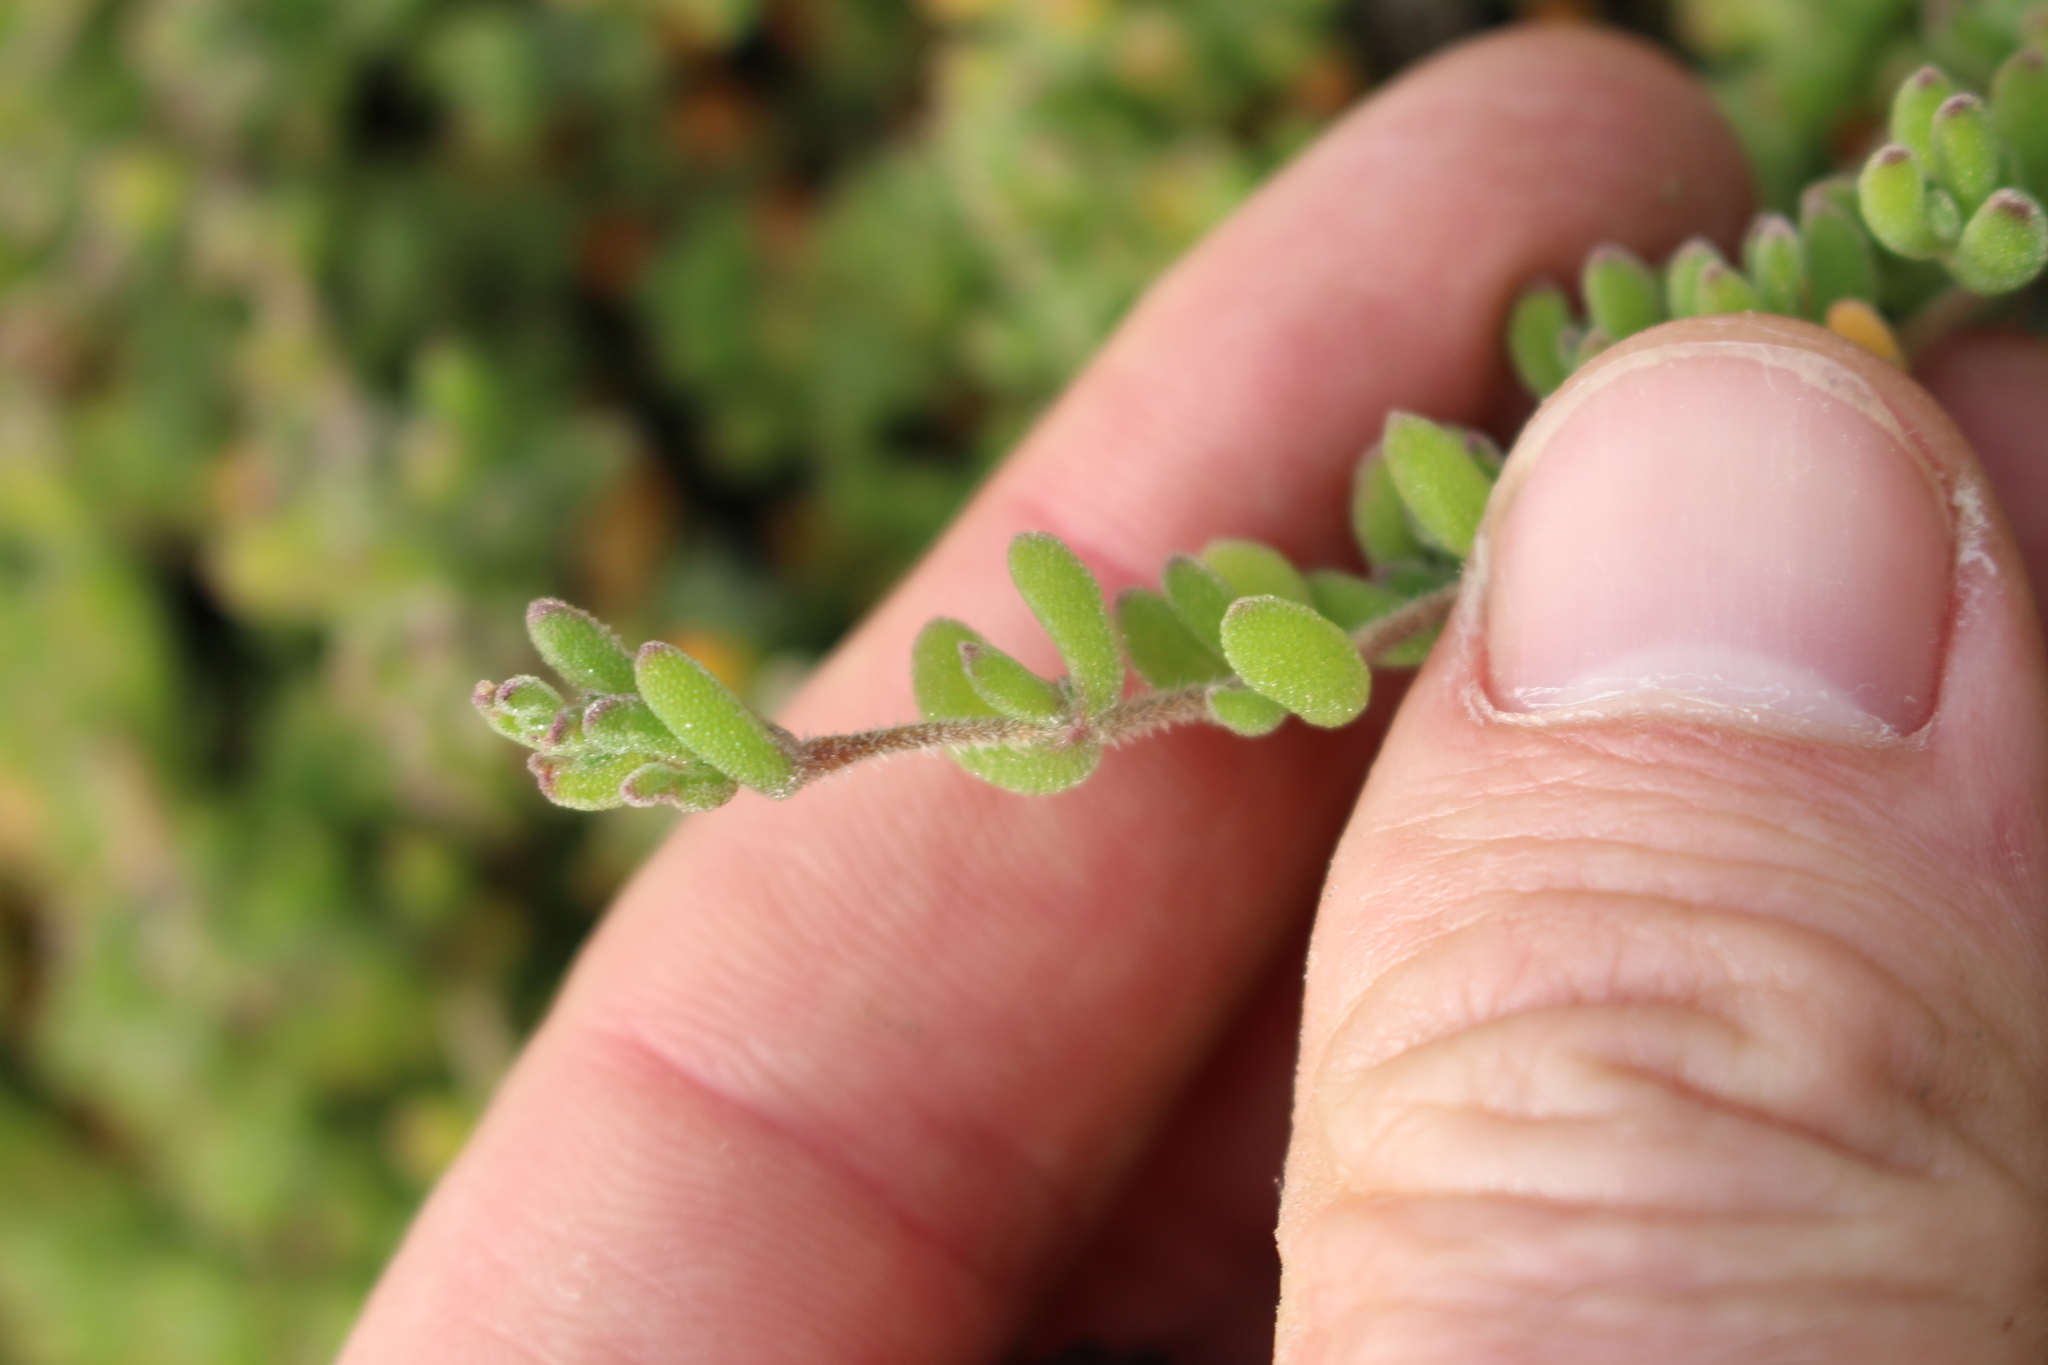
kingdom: Plantae
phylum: Tracheophyta
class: Magnoliopsida
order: Caryophyllales
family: Aizoaceae
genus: Drosanthemum
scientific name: Drosanthemum floribundum
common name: Pale dewplant
